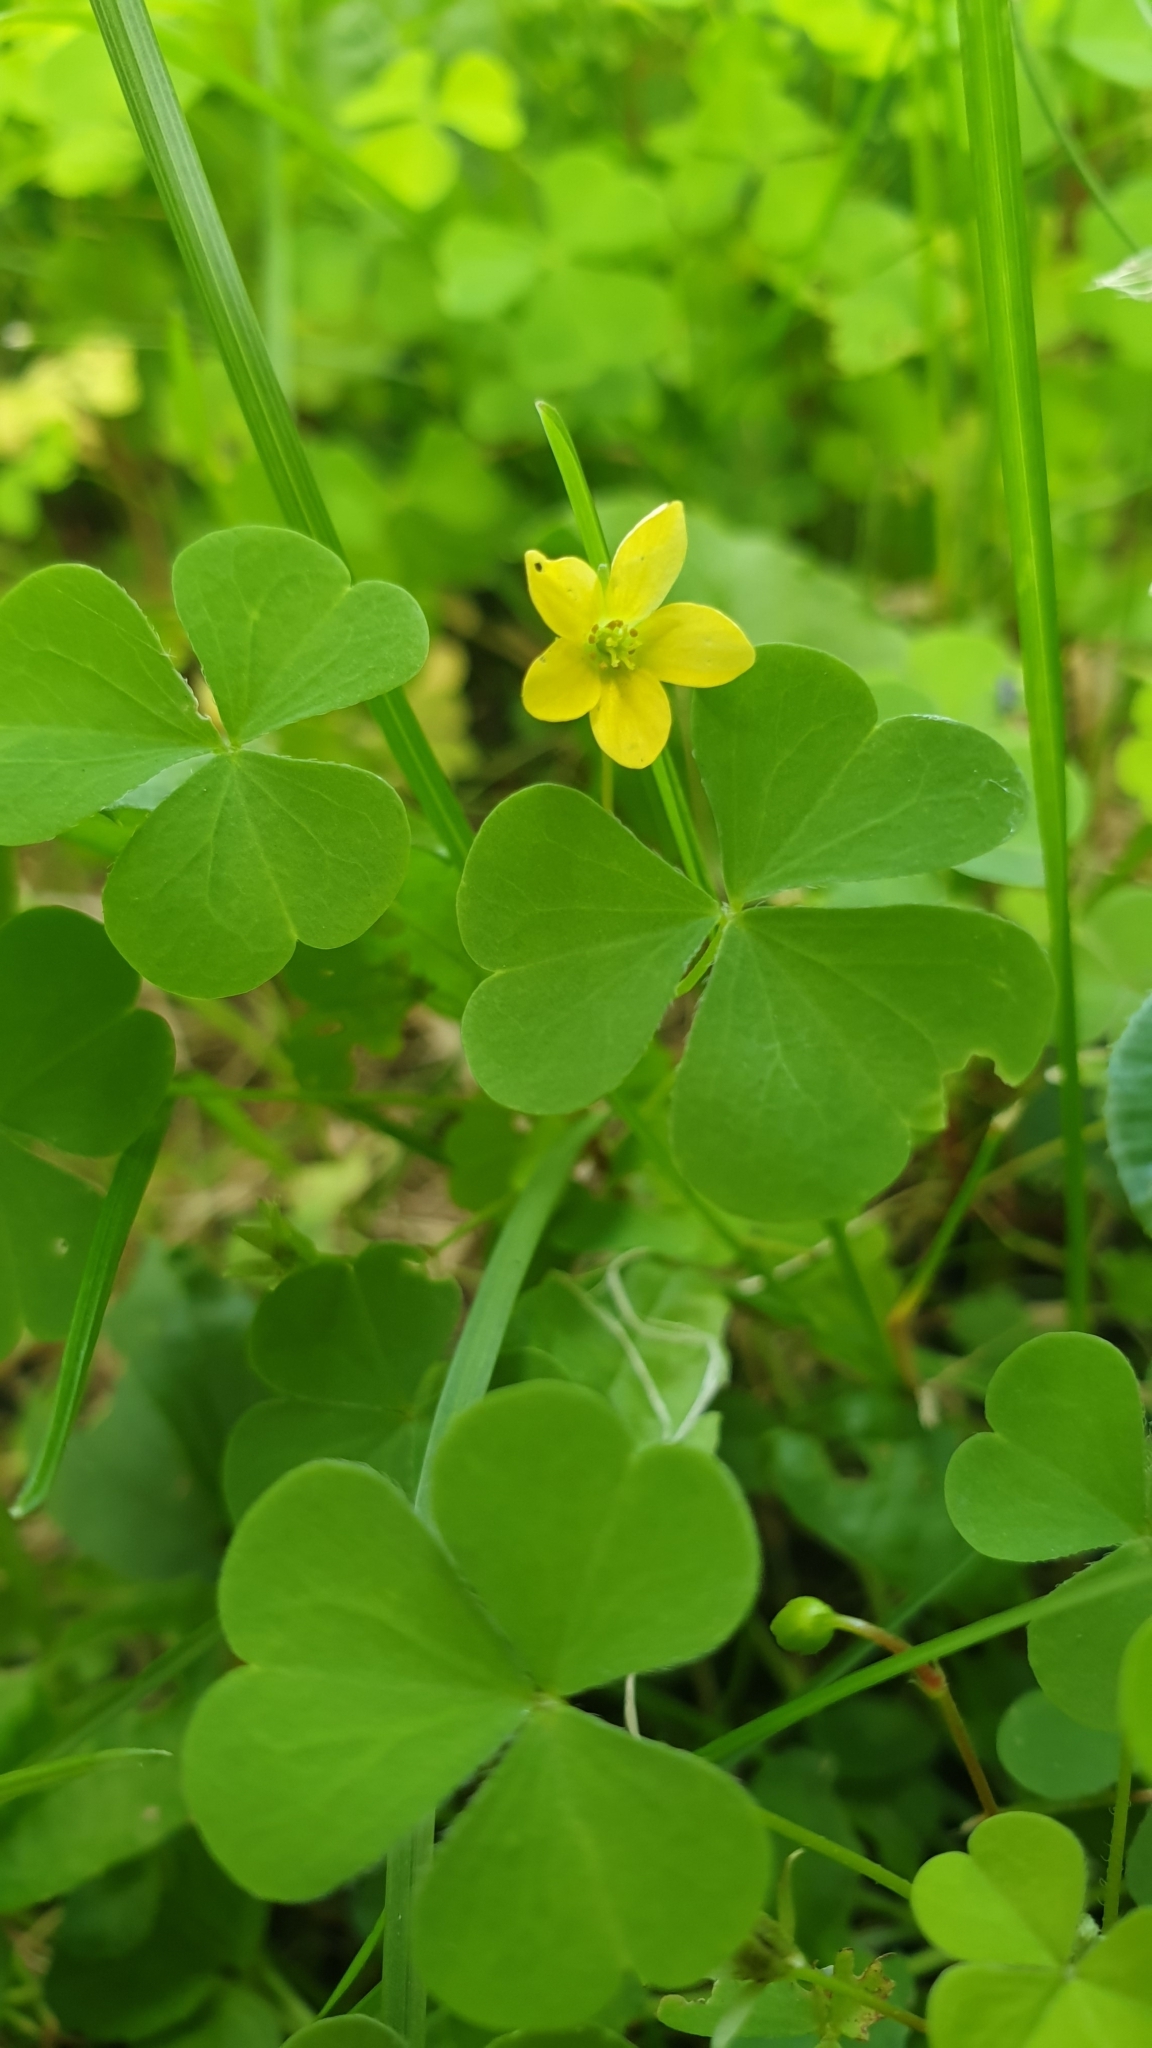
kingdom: Plantae
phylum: Tracheophyta
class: Magnoliopsida
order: Oxalidales
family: Oxalidaceae
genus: Oxalis
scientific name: Oxalis stricta
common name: Upright yellow-sorrel
